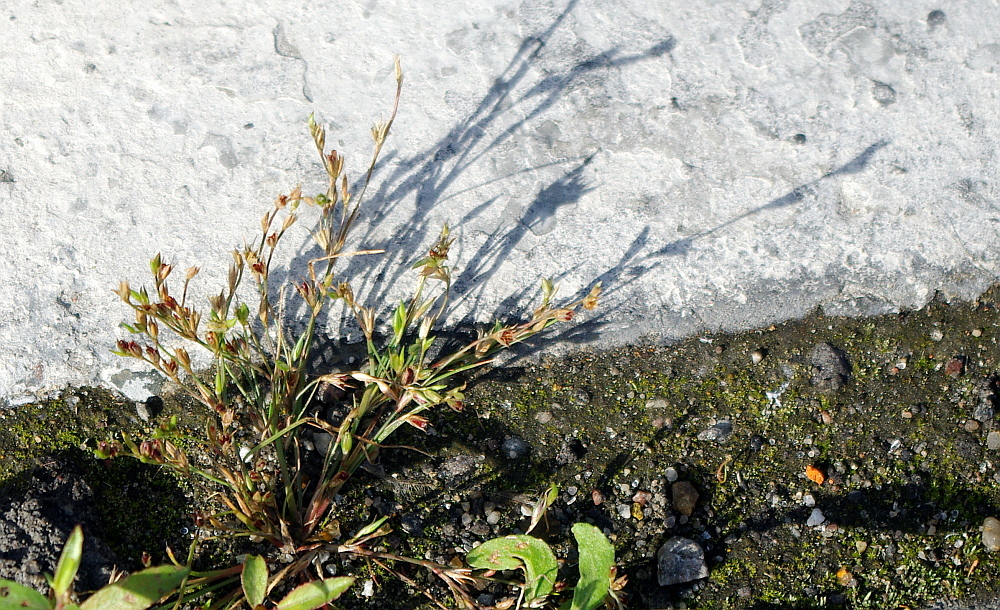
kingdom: Plantae
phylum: Tracheophyta
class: Liliopsida
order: Poales
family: Juncaceae
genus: Juncus
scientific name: Juncus ranarius
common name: Frog rush
